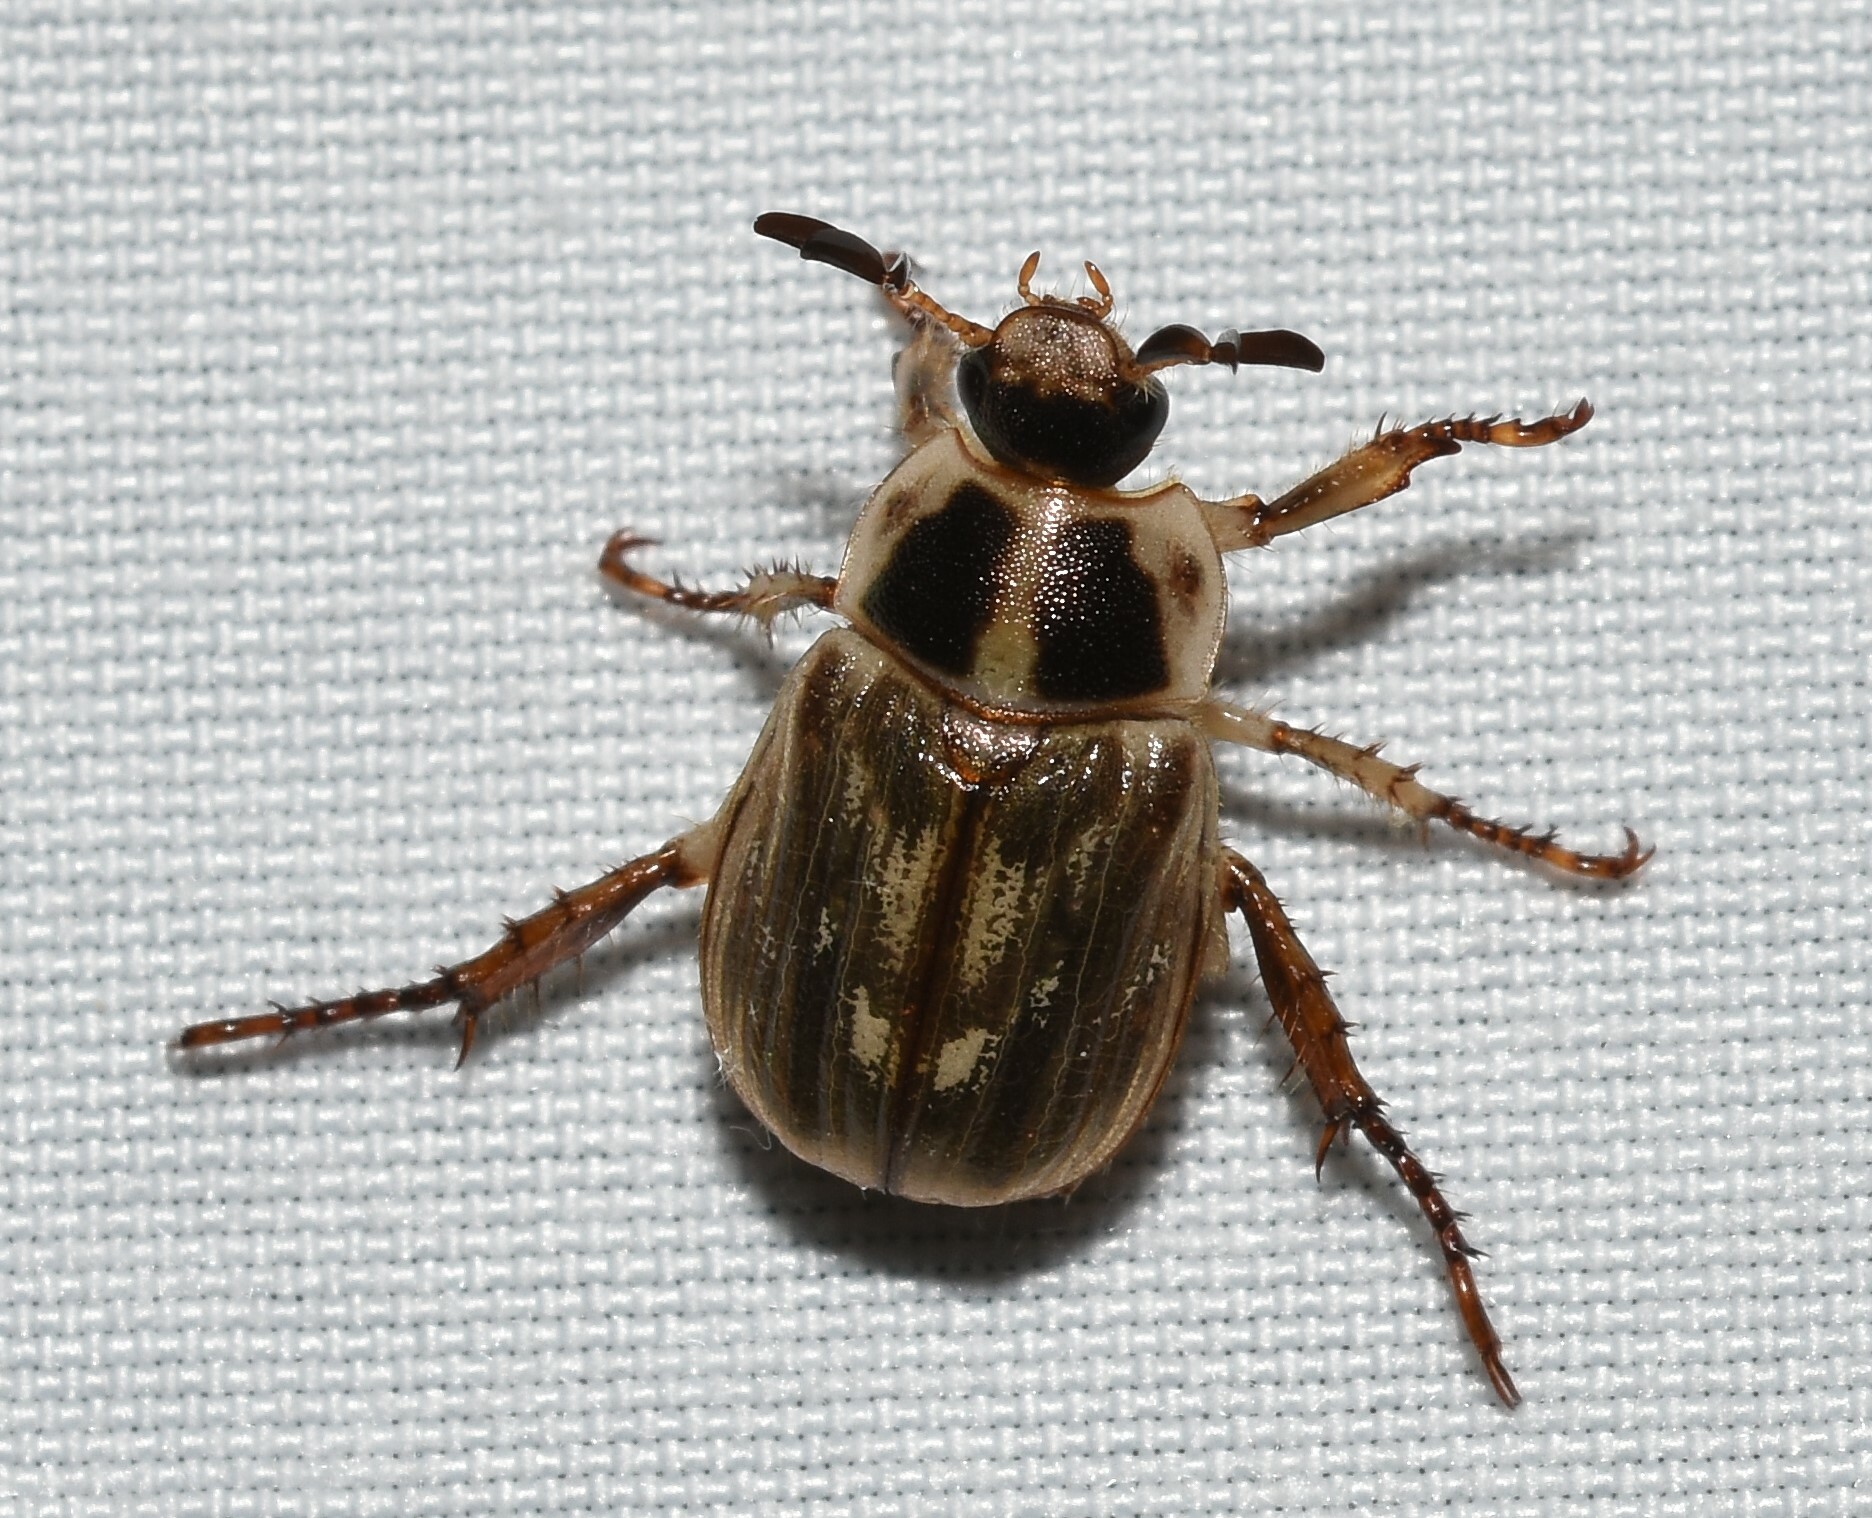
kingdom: Animalia
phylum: Arthropoda
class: Insecta
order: Coleoptera
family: Scarabaeidae
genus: Exomala
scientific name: Exomala orientalis
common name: Oriental beetle
